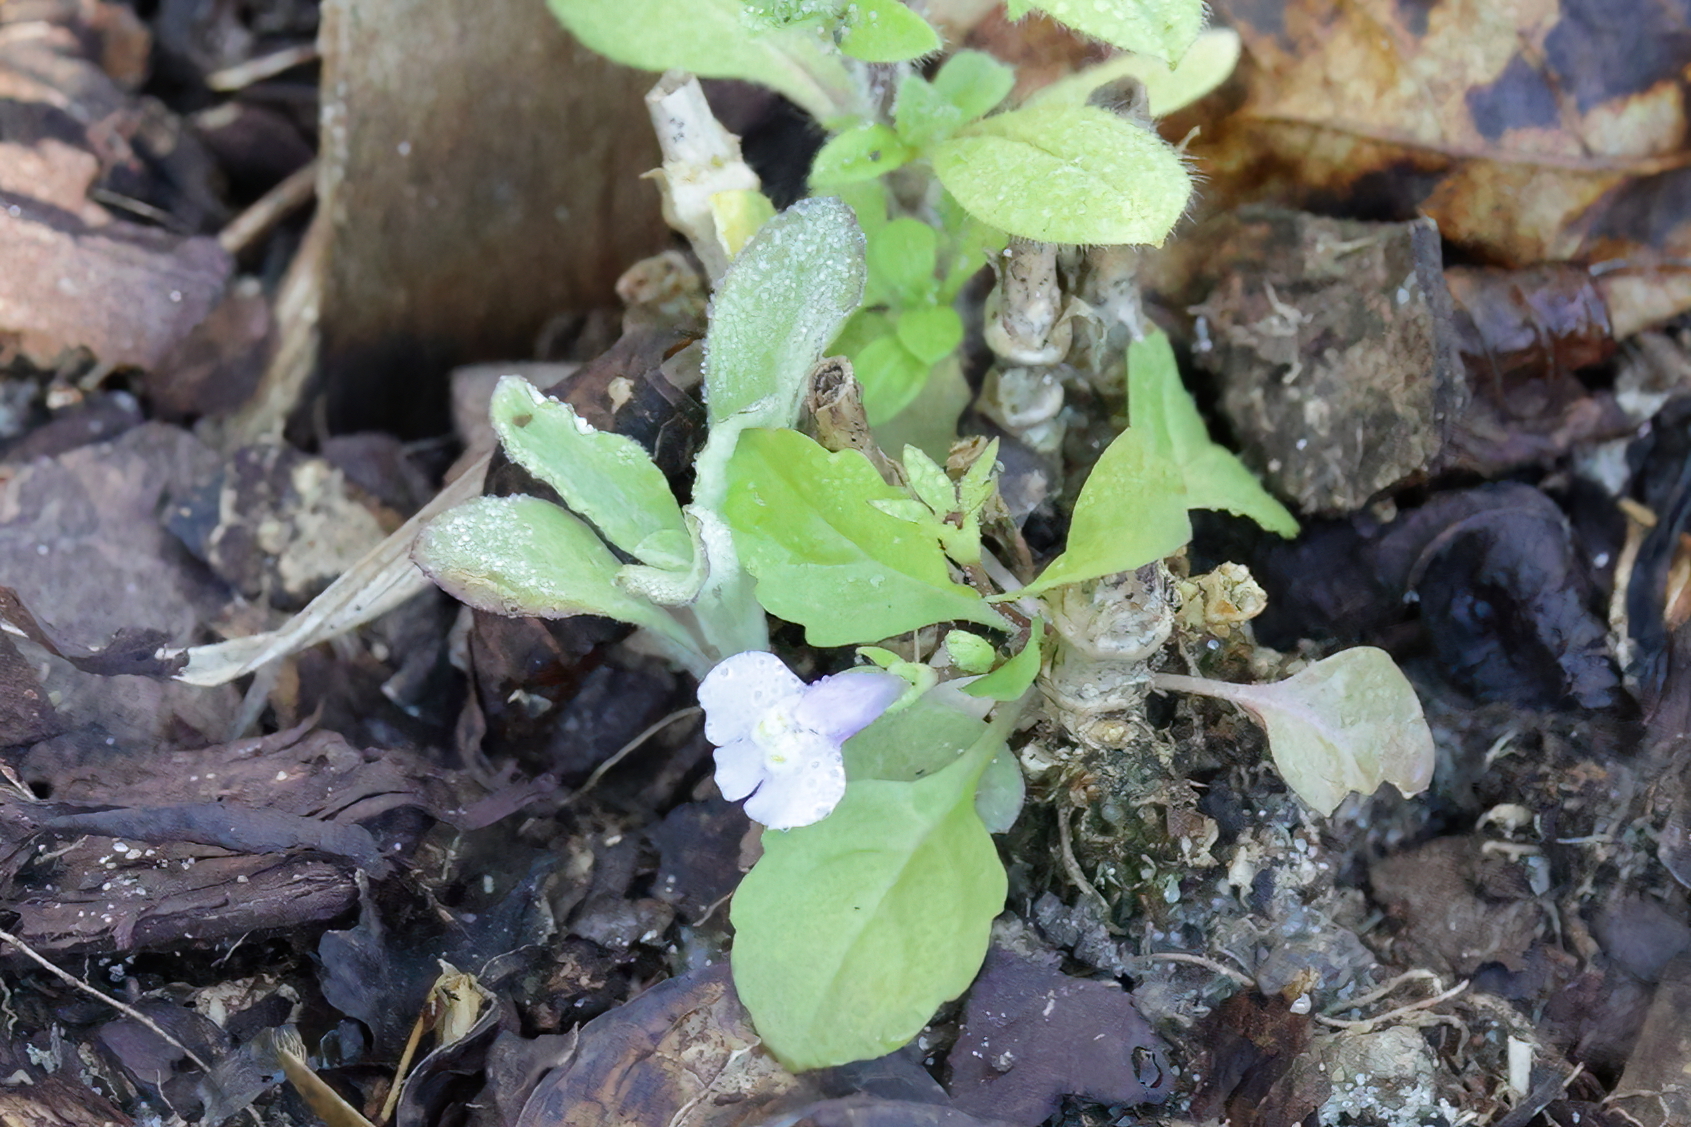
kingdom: Plantae
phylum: Tracheophyta
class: Magnoliopsida
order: Lamiales
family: Mazaceae
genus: Mazus
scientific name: Mazus pumilus
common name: Japanese mazus
